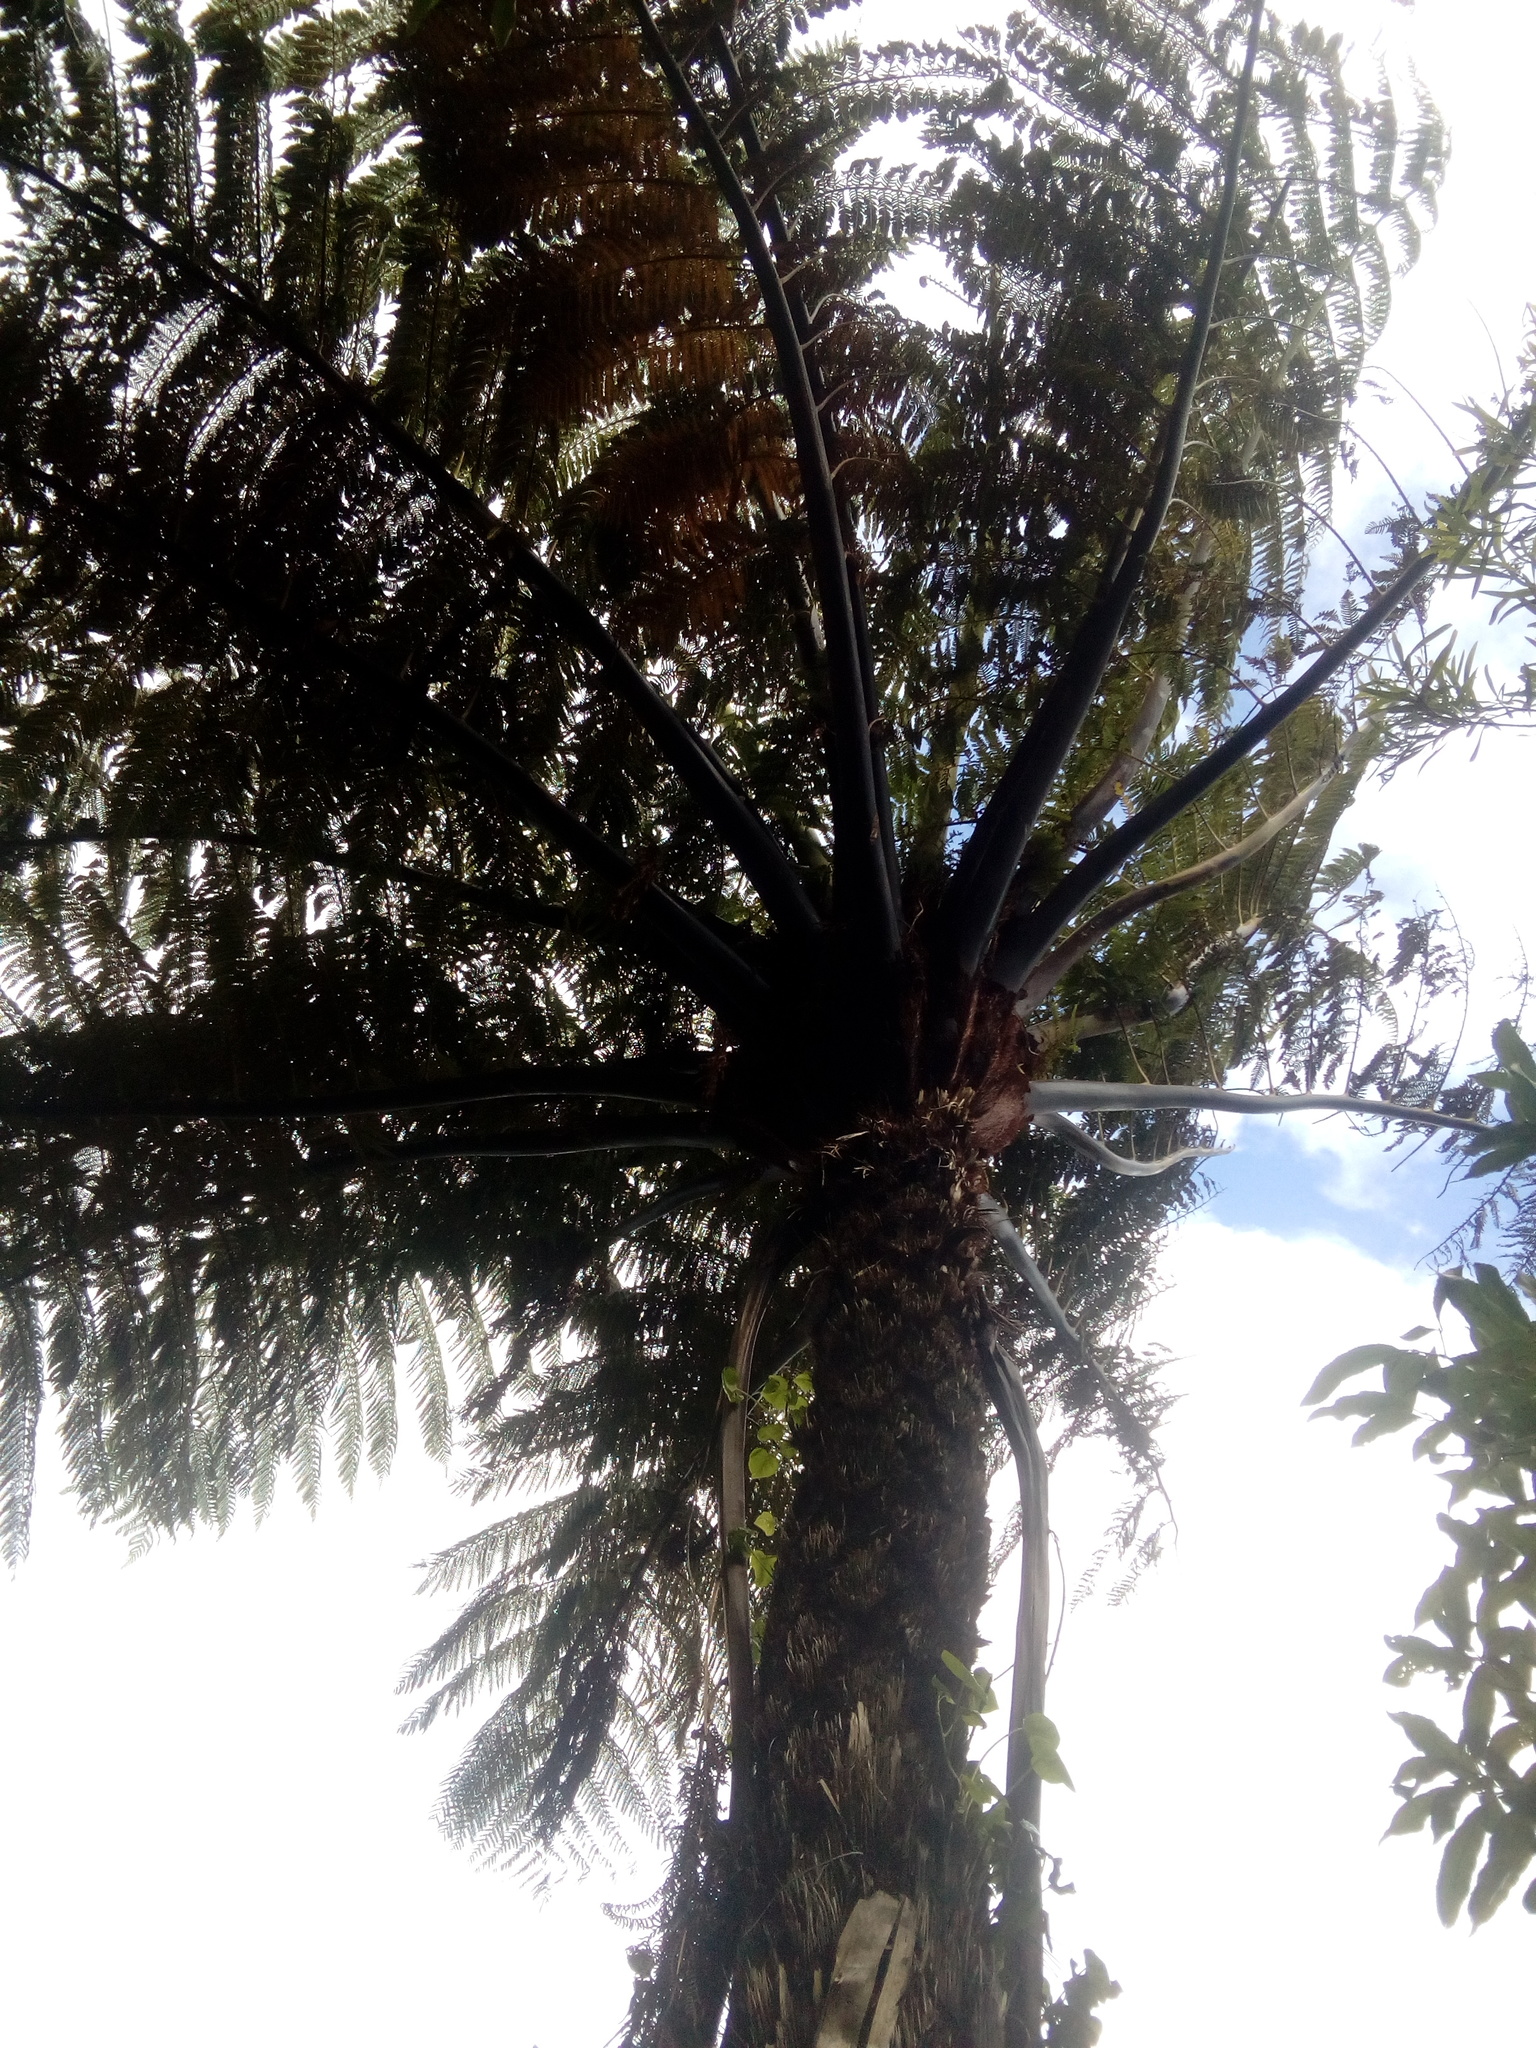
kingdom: Plantae
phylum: Tracheophyta
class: Polypodiopsida
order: Cyatheales
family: Cyatheaceae
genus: Sphaeropteris
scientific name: Sphaeropteris medullaris
